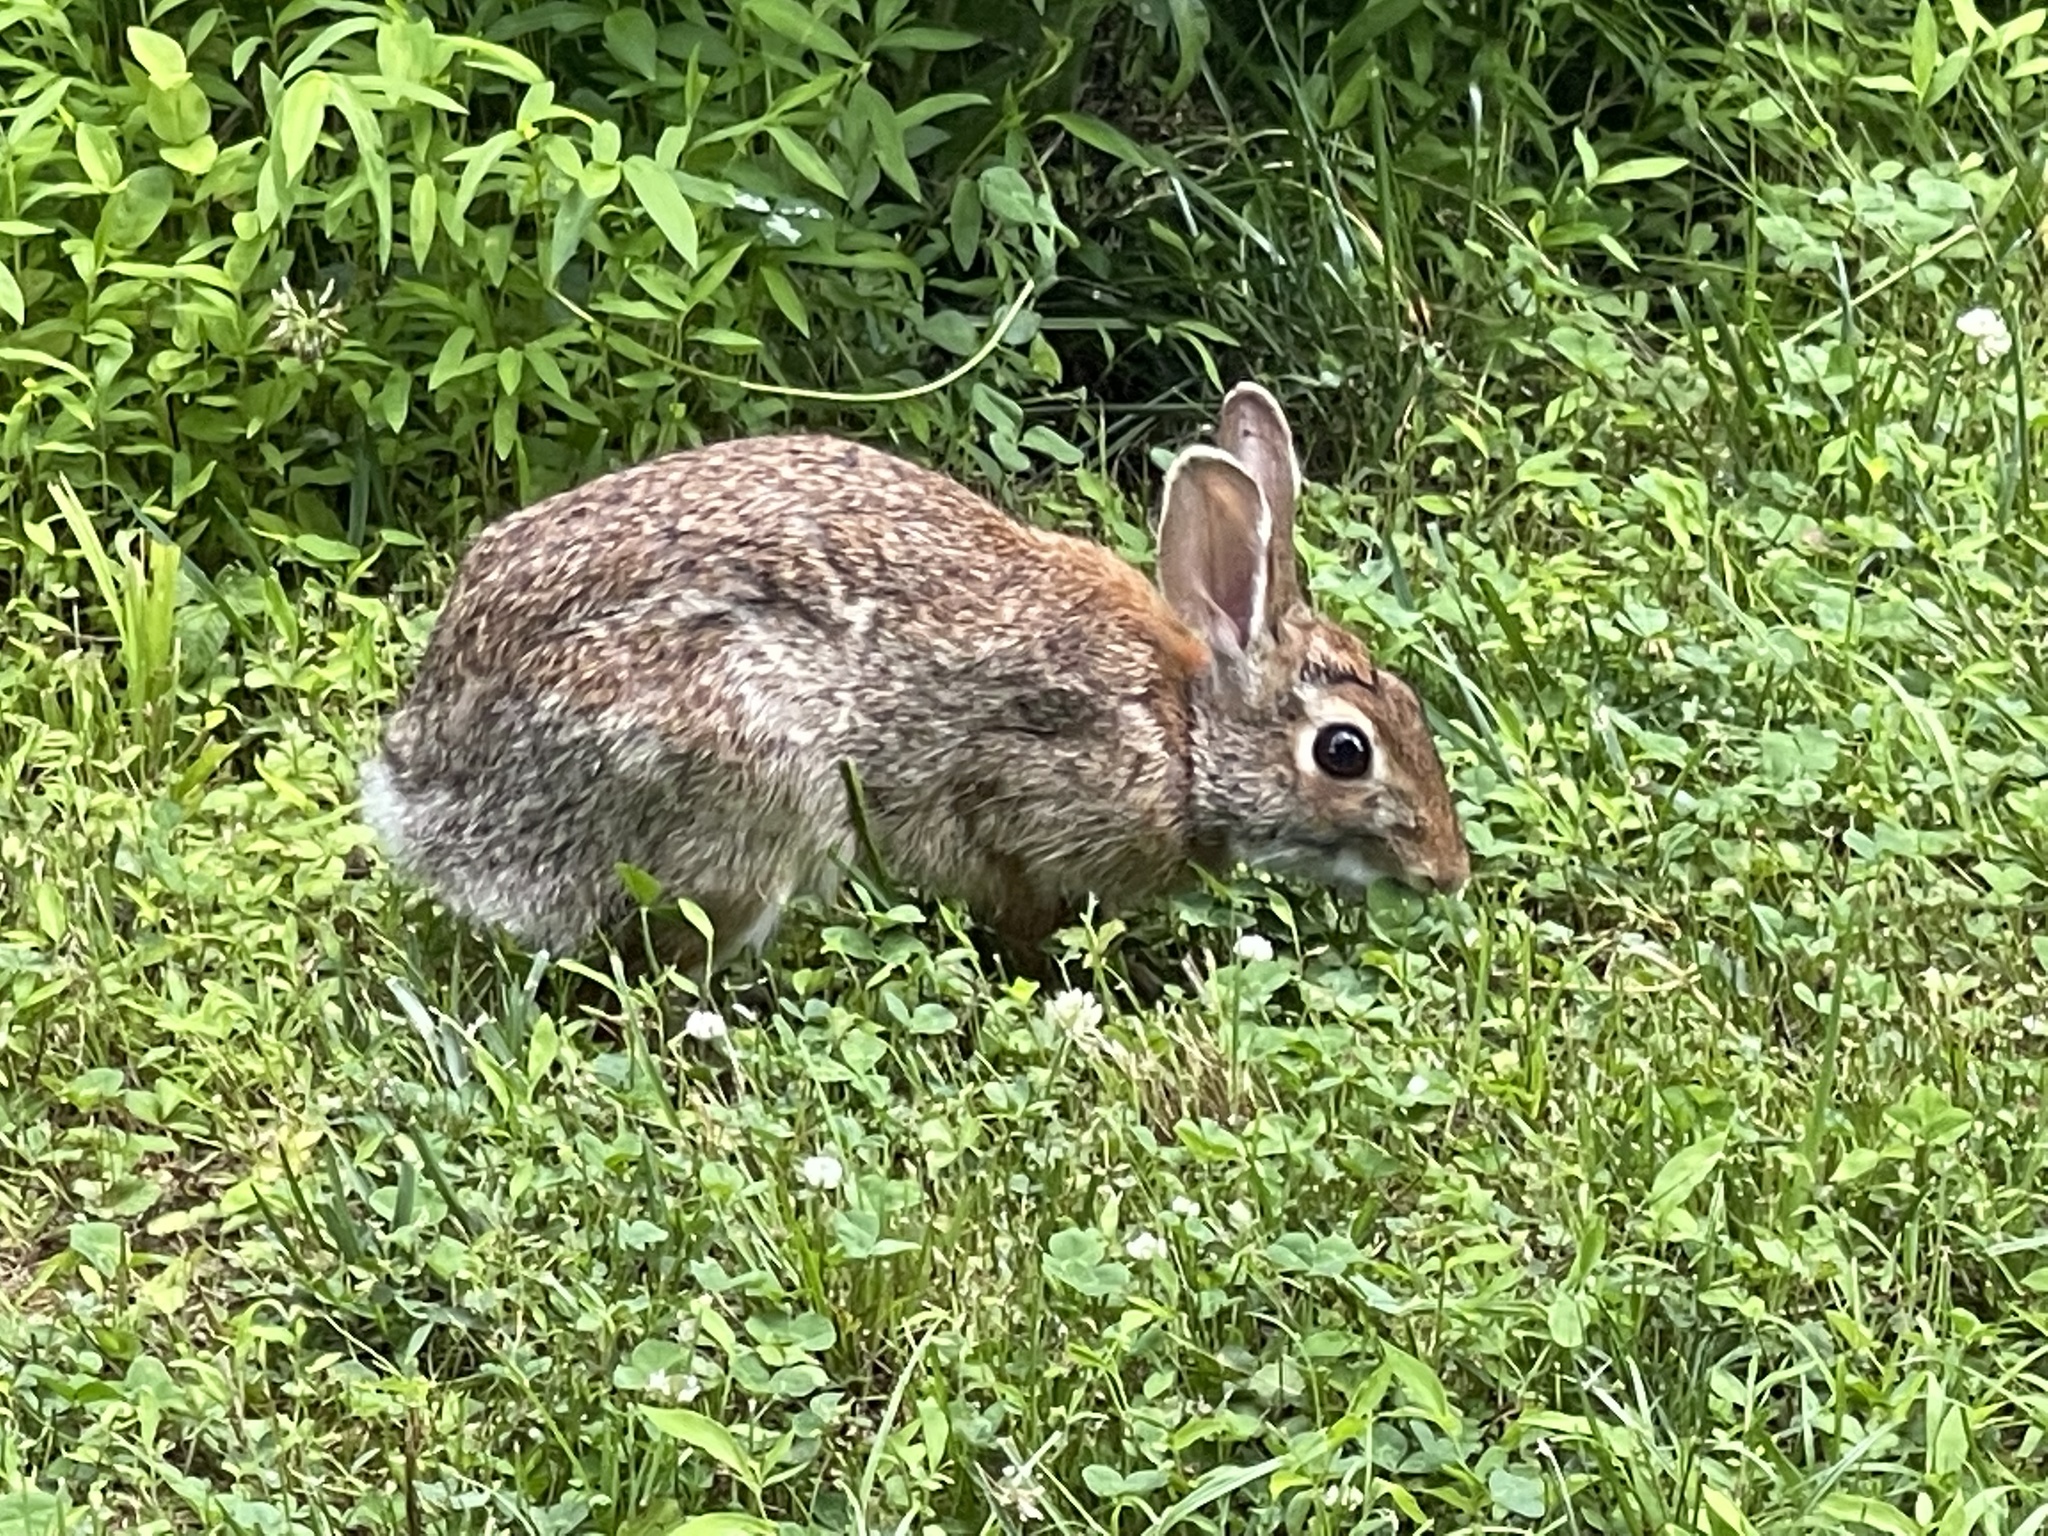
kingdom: Animalia
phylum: Chordata
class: Mammalia
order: Lagomorpha
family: Leporidae
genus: Sylvilagus
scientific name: Sylvilagus floridanus
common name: Eastern cottontail
